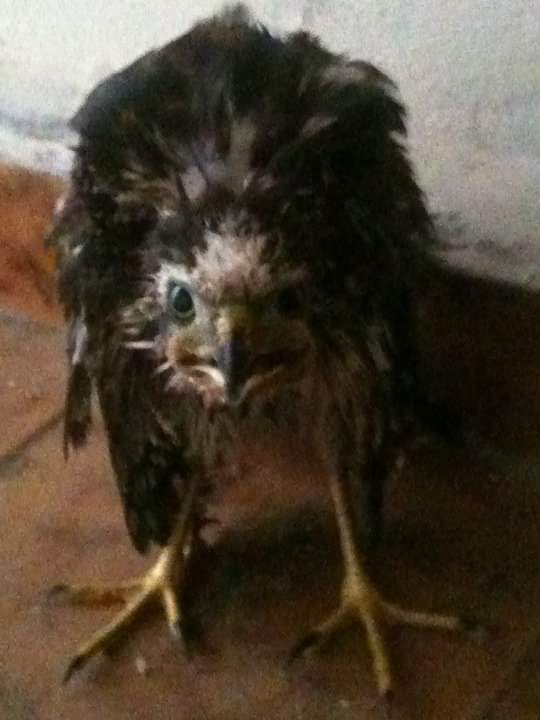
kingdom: Animalia
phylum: Chordata
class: Aves
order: Accipitriformes
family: Accipitridae
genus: Accipiter
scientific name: Accipiter cooperii
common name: Cooper's hawk
